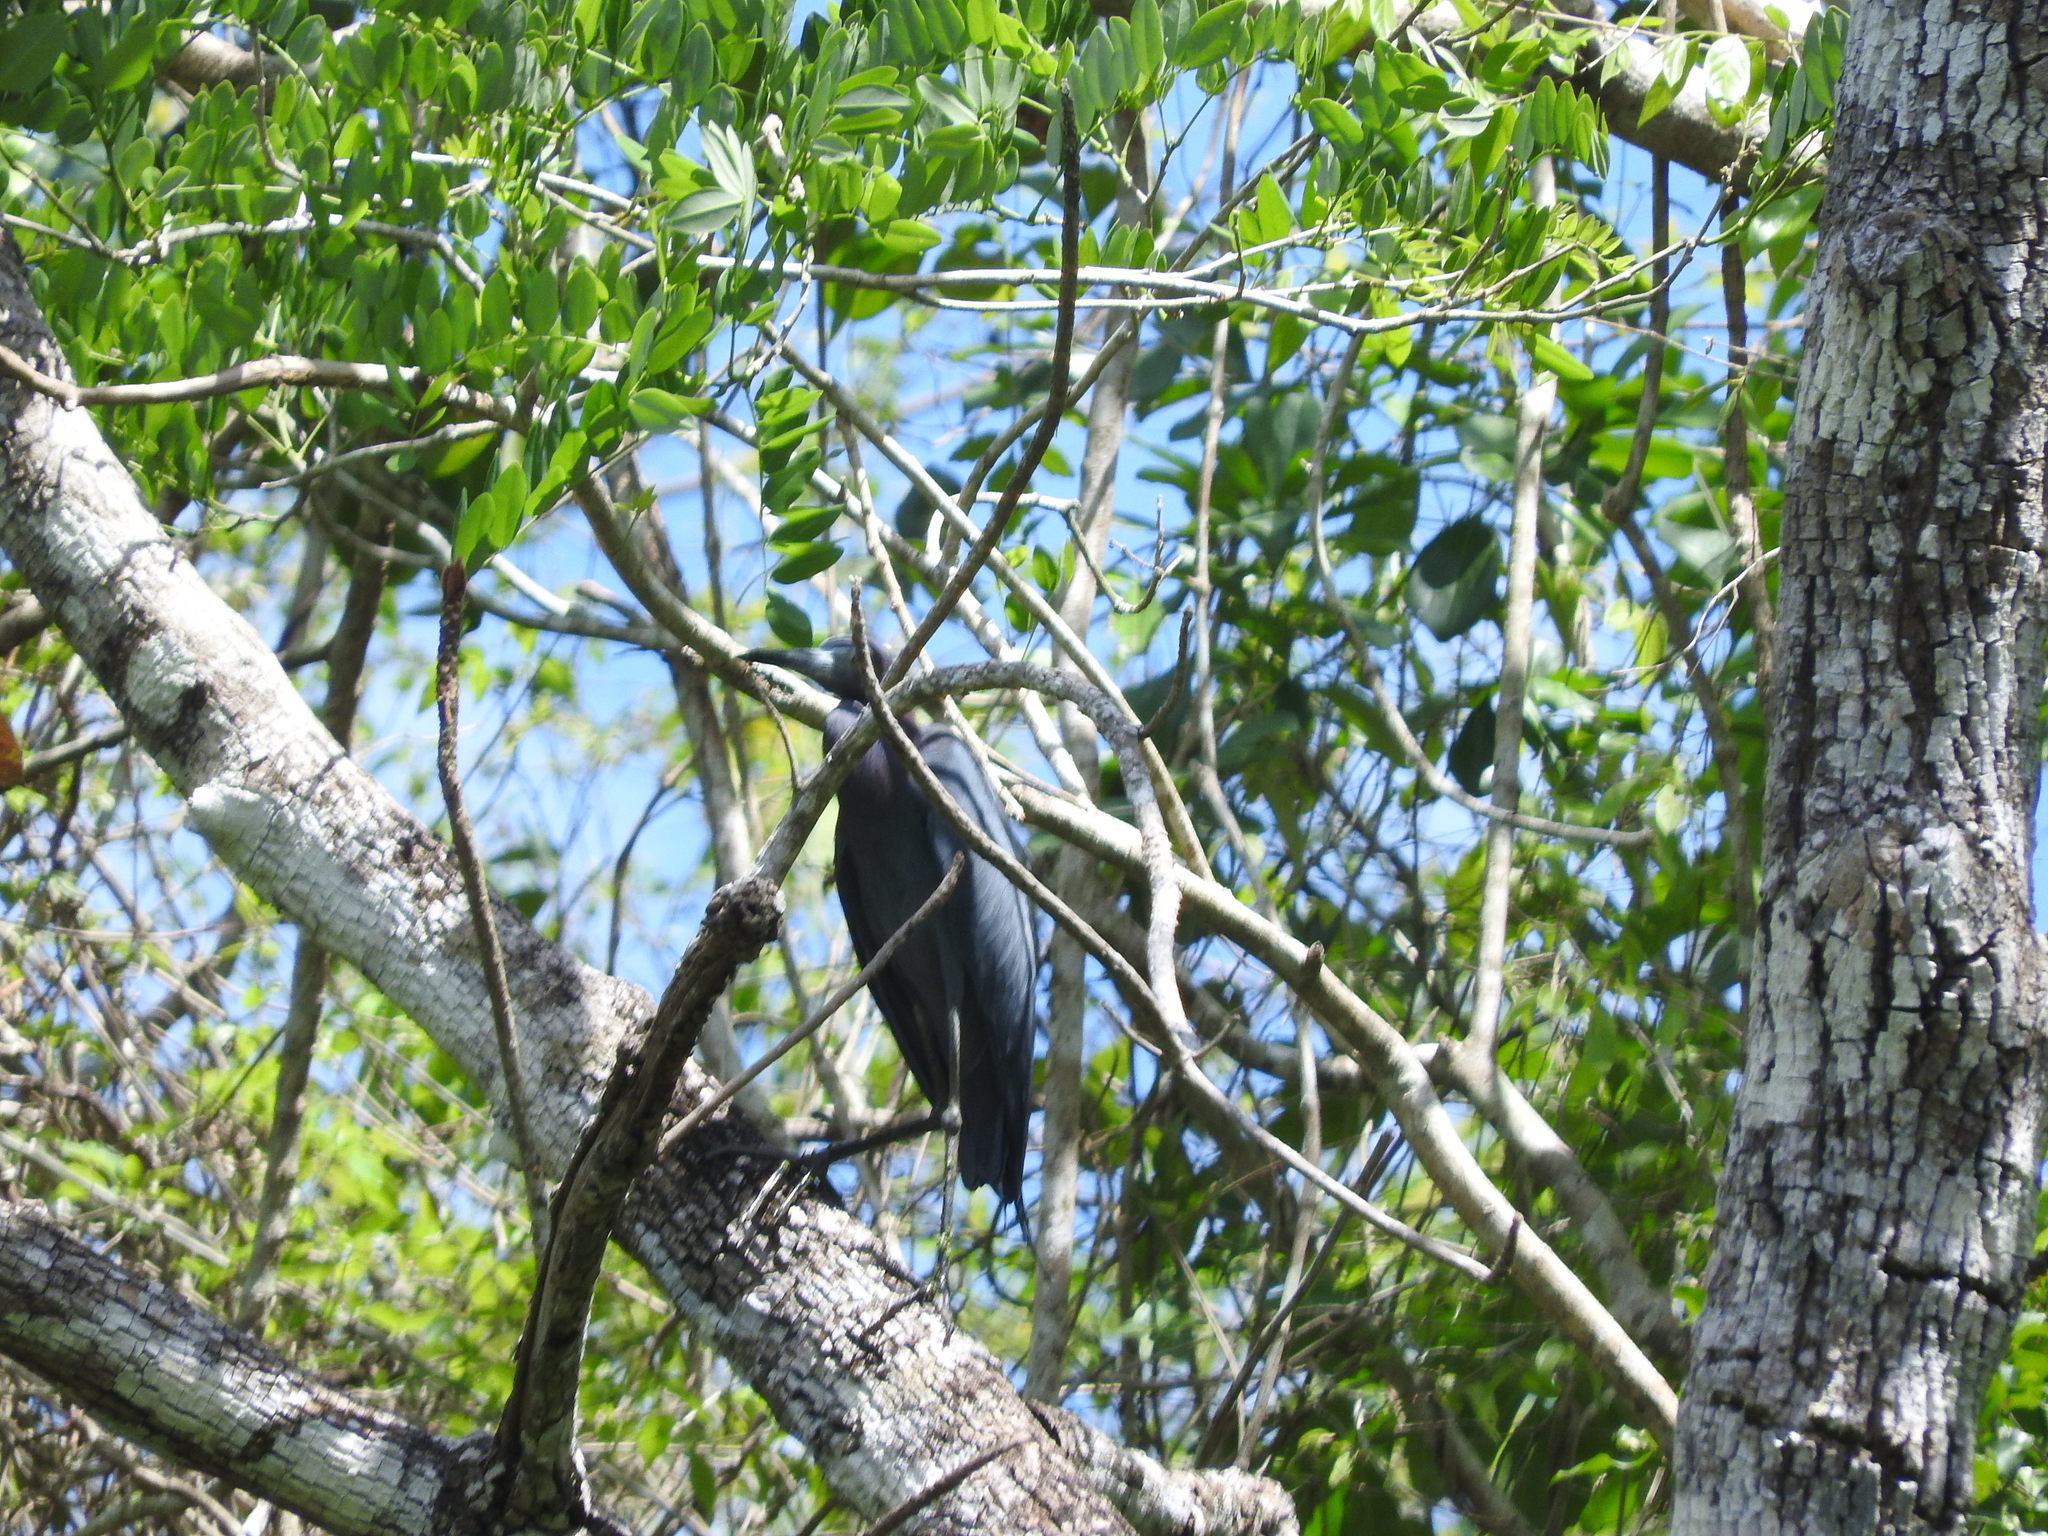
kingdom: Animalia
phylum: Chordata
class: Aves
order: Pelecaniformes
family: Ardeidae
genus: Egretta
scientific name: Egretta caerulea
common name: Little blue heron
